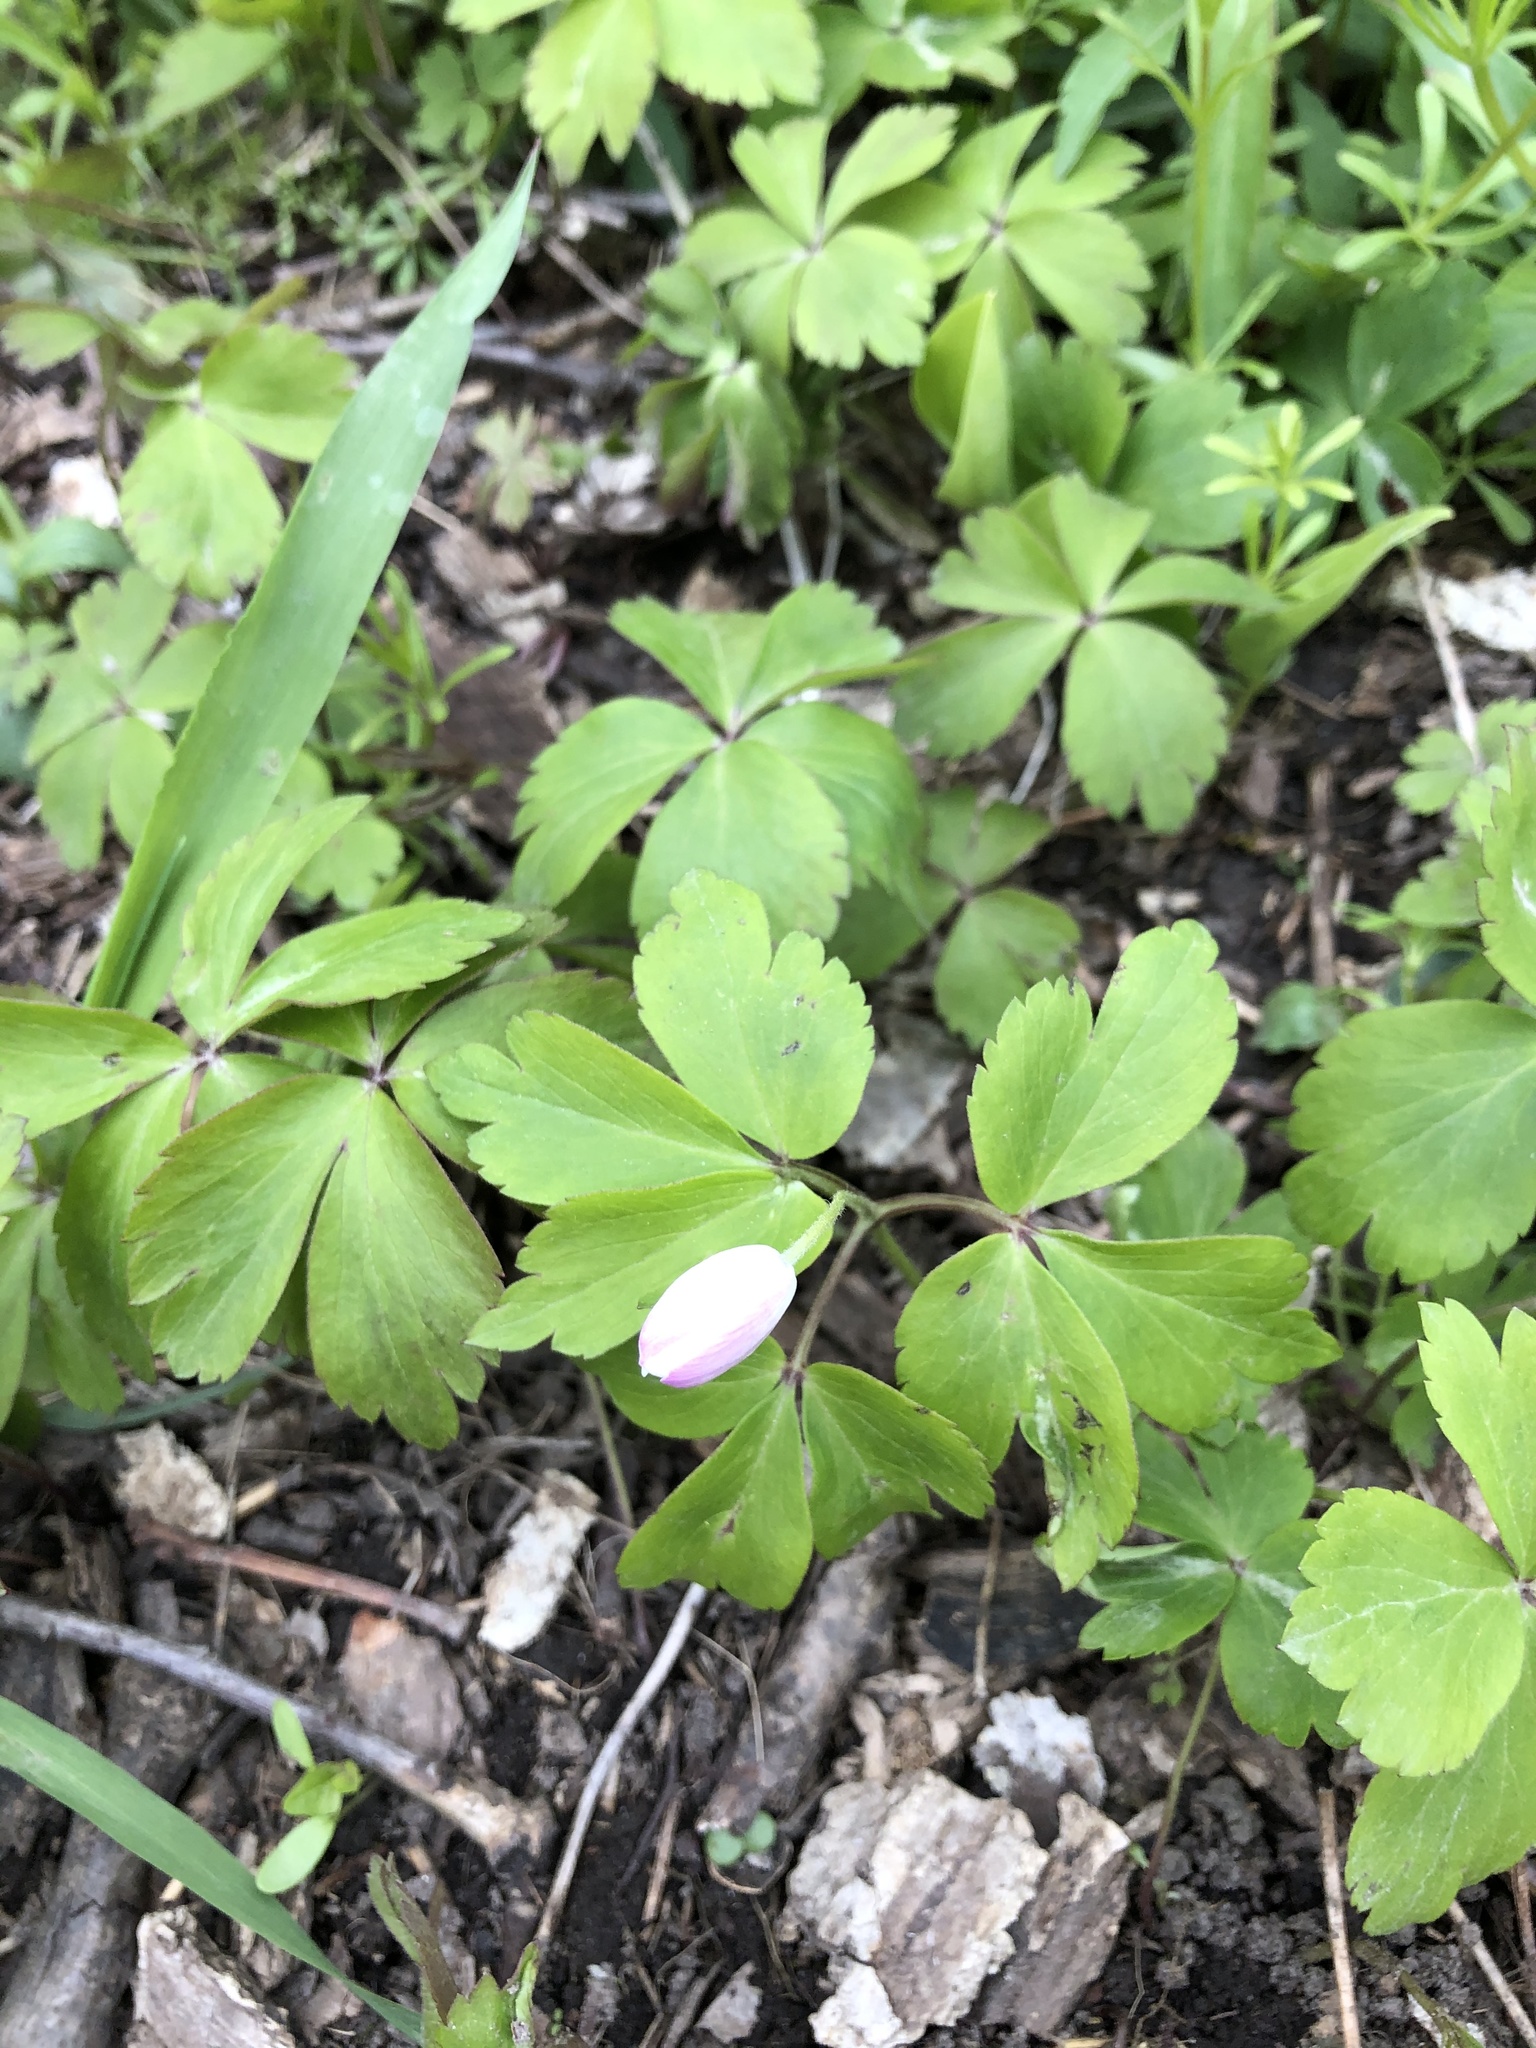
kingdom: Plantae
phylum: Tracheophyta
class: Magnoliopsida
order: Ranunculales
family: Ranunculaceae
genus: Anemone
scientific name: Anemone quinquefolia
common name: Wood anemone
